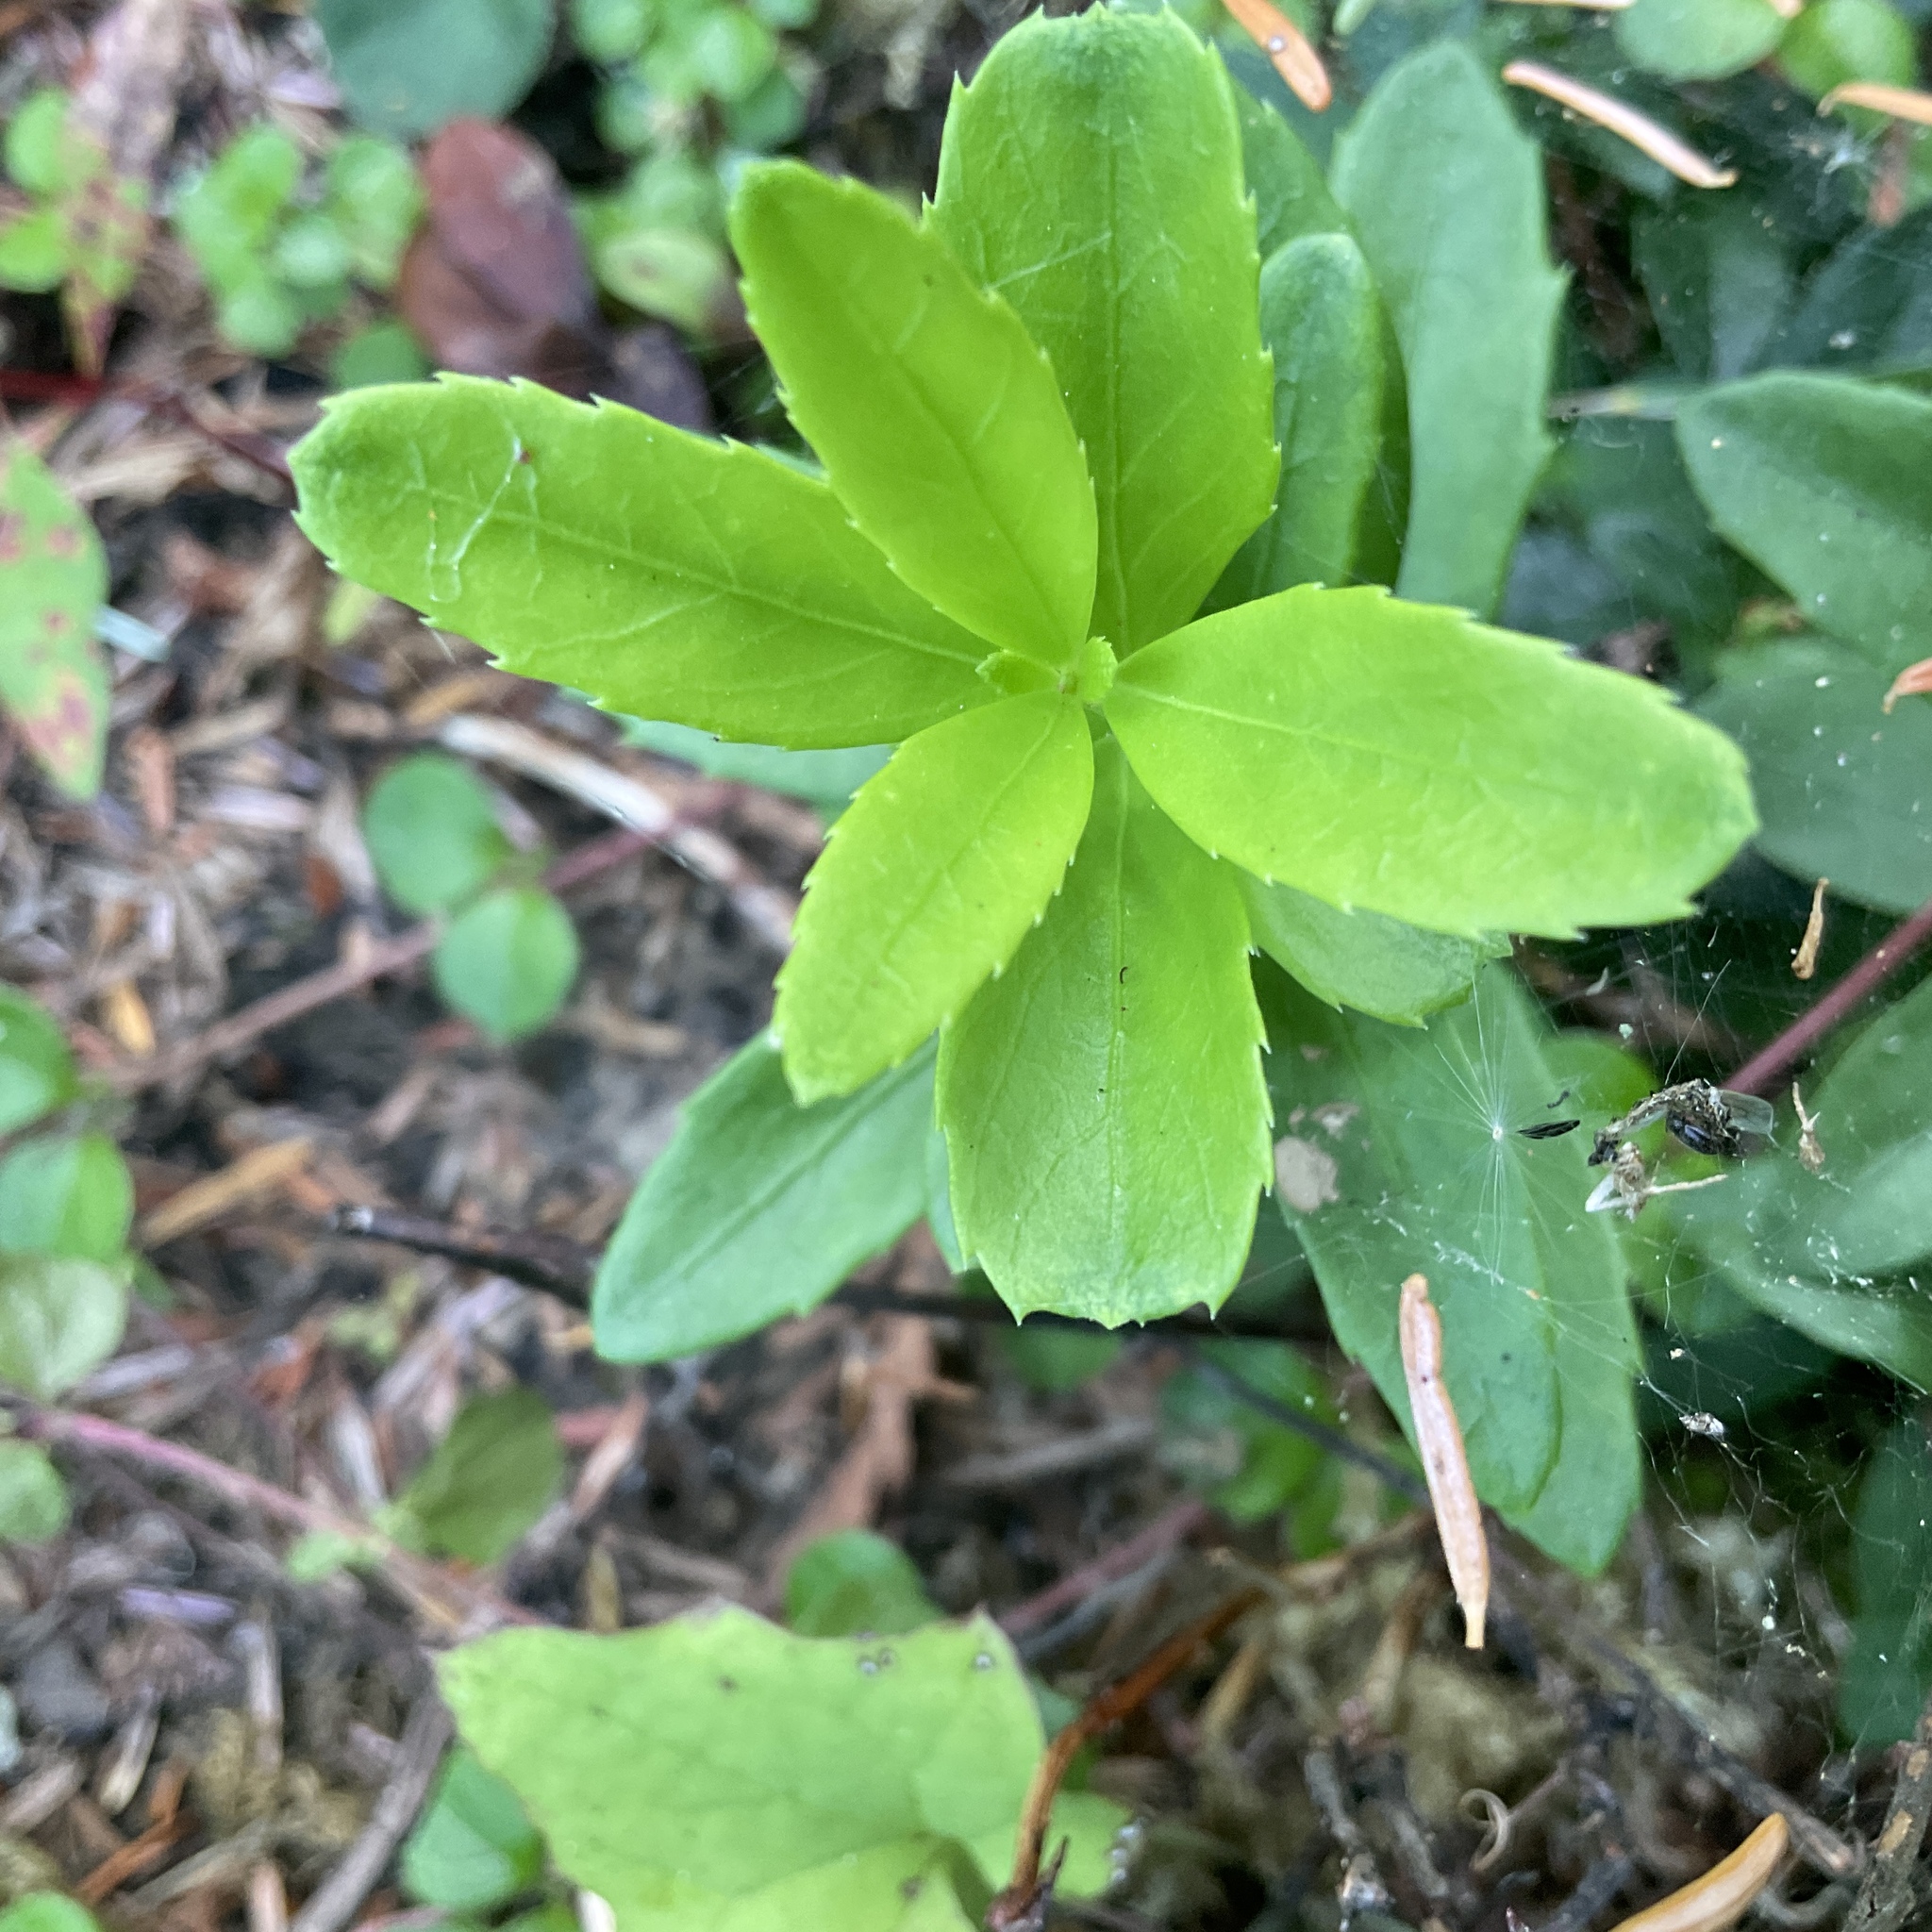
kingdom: Plantae
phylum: Tracheophyta
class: Magnoliopsida
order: Celastrales
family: Celastraceae
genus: Paxistima
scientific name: Paxistima myrsinites
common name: Mountain-lover
